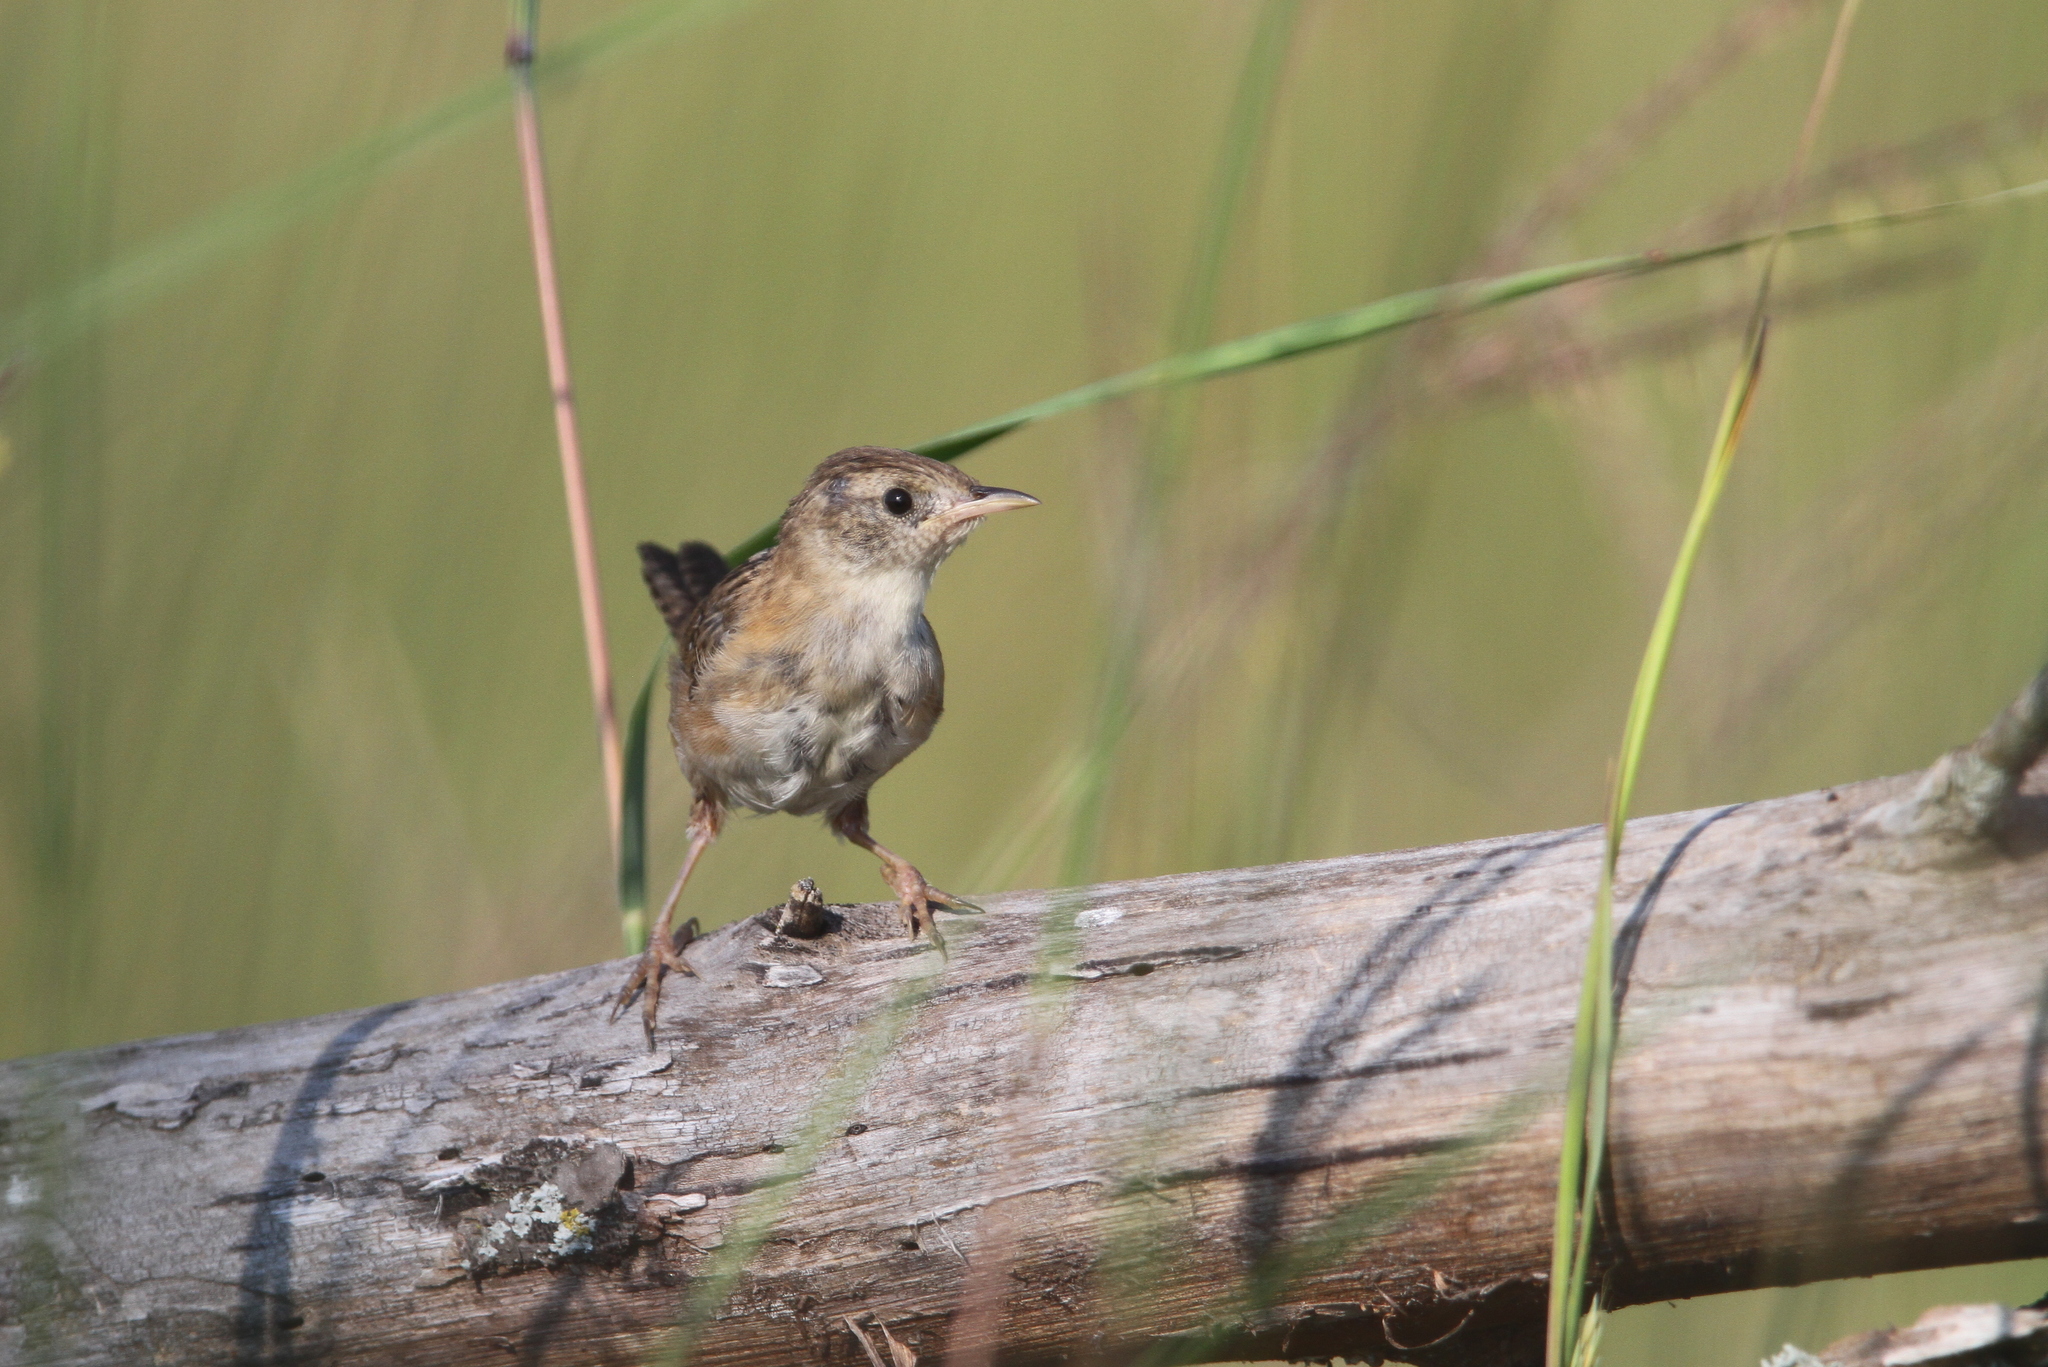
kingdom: Animalia
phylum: Chordata
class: Aves
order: Passeriformes
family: Troglodytidae
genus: Cistothorus
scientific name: Cistothorus platensis
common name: Sedge wren
